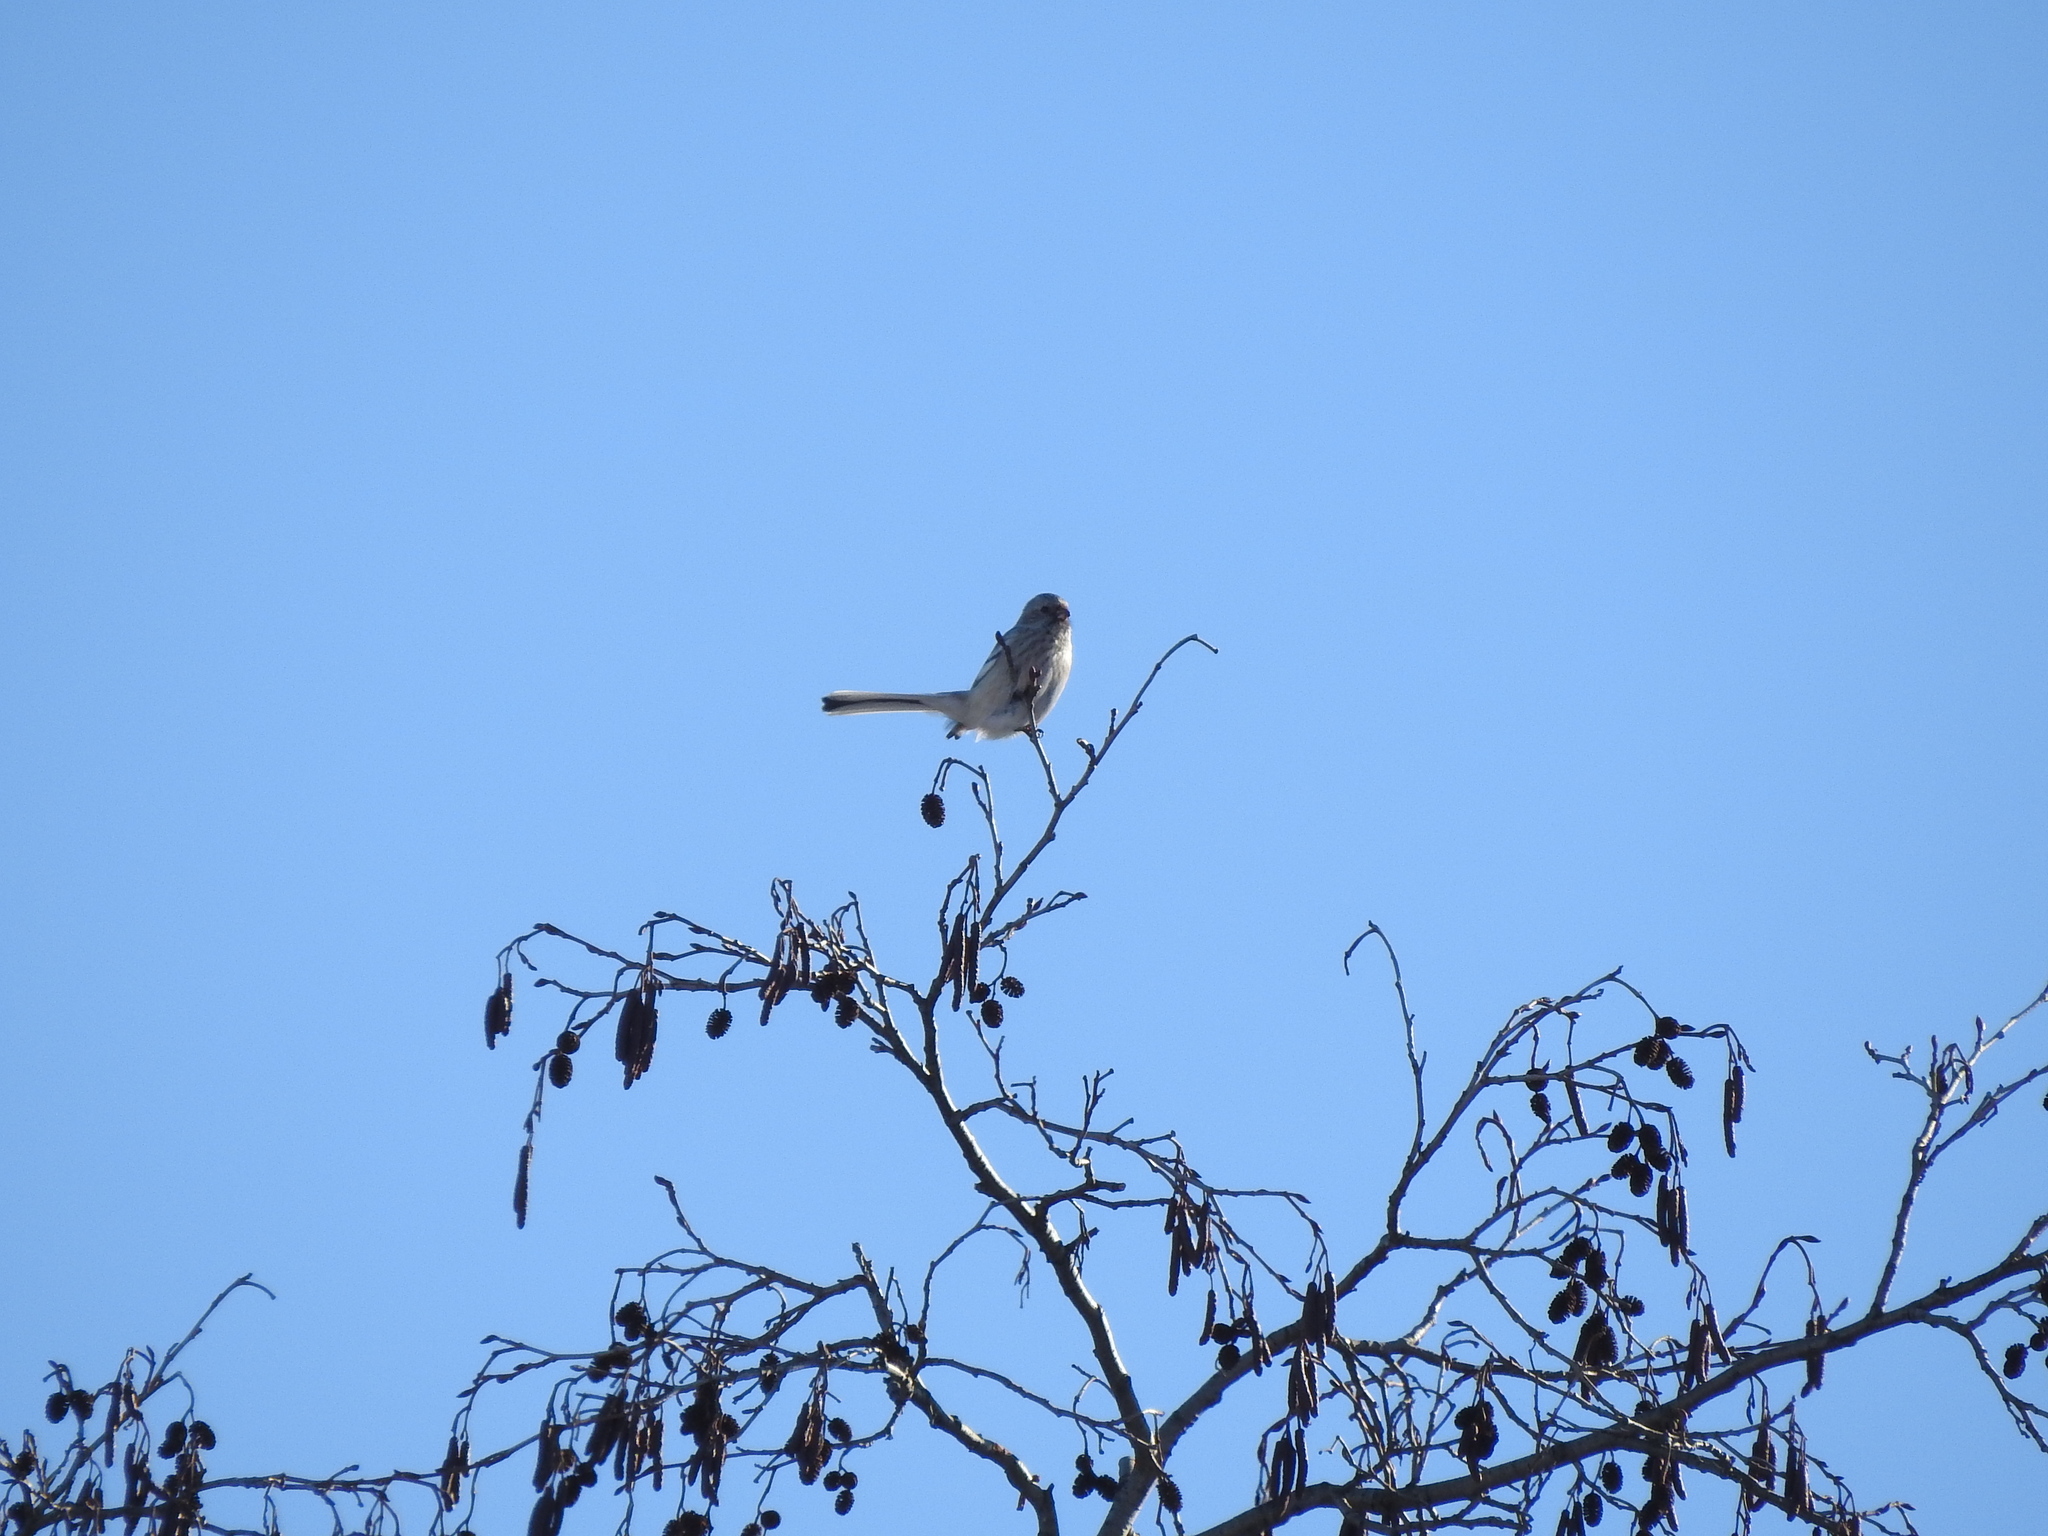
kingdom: Animalia
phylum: Chordata
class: Aves
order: Passeriformes
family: Fringillidae
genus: Carpodacus
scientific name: Carpodacus sibiricus
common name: Long-tailed rosefinch
